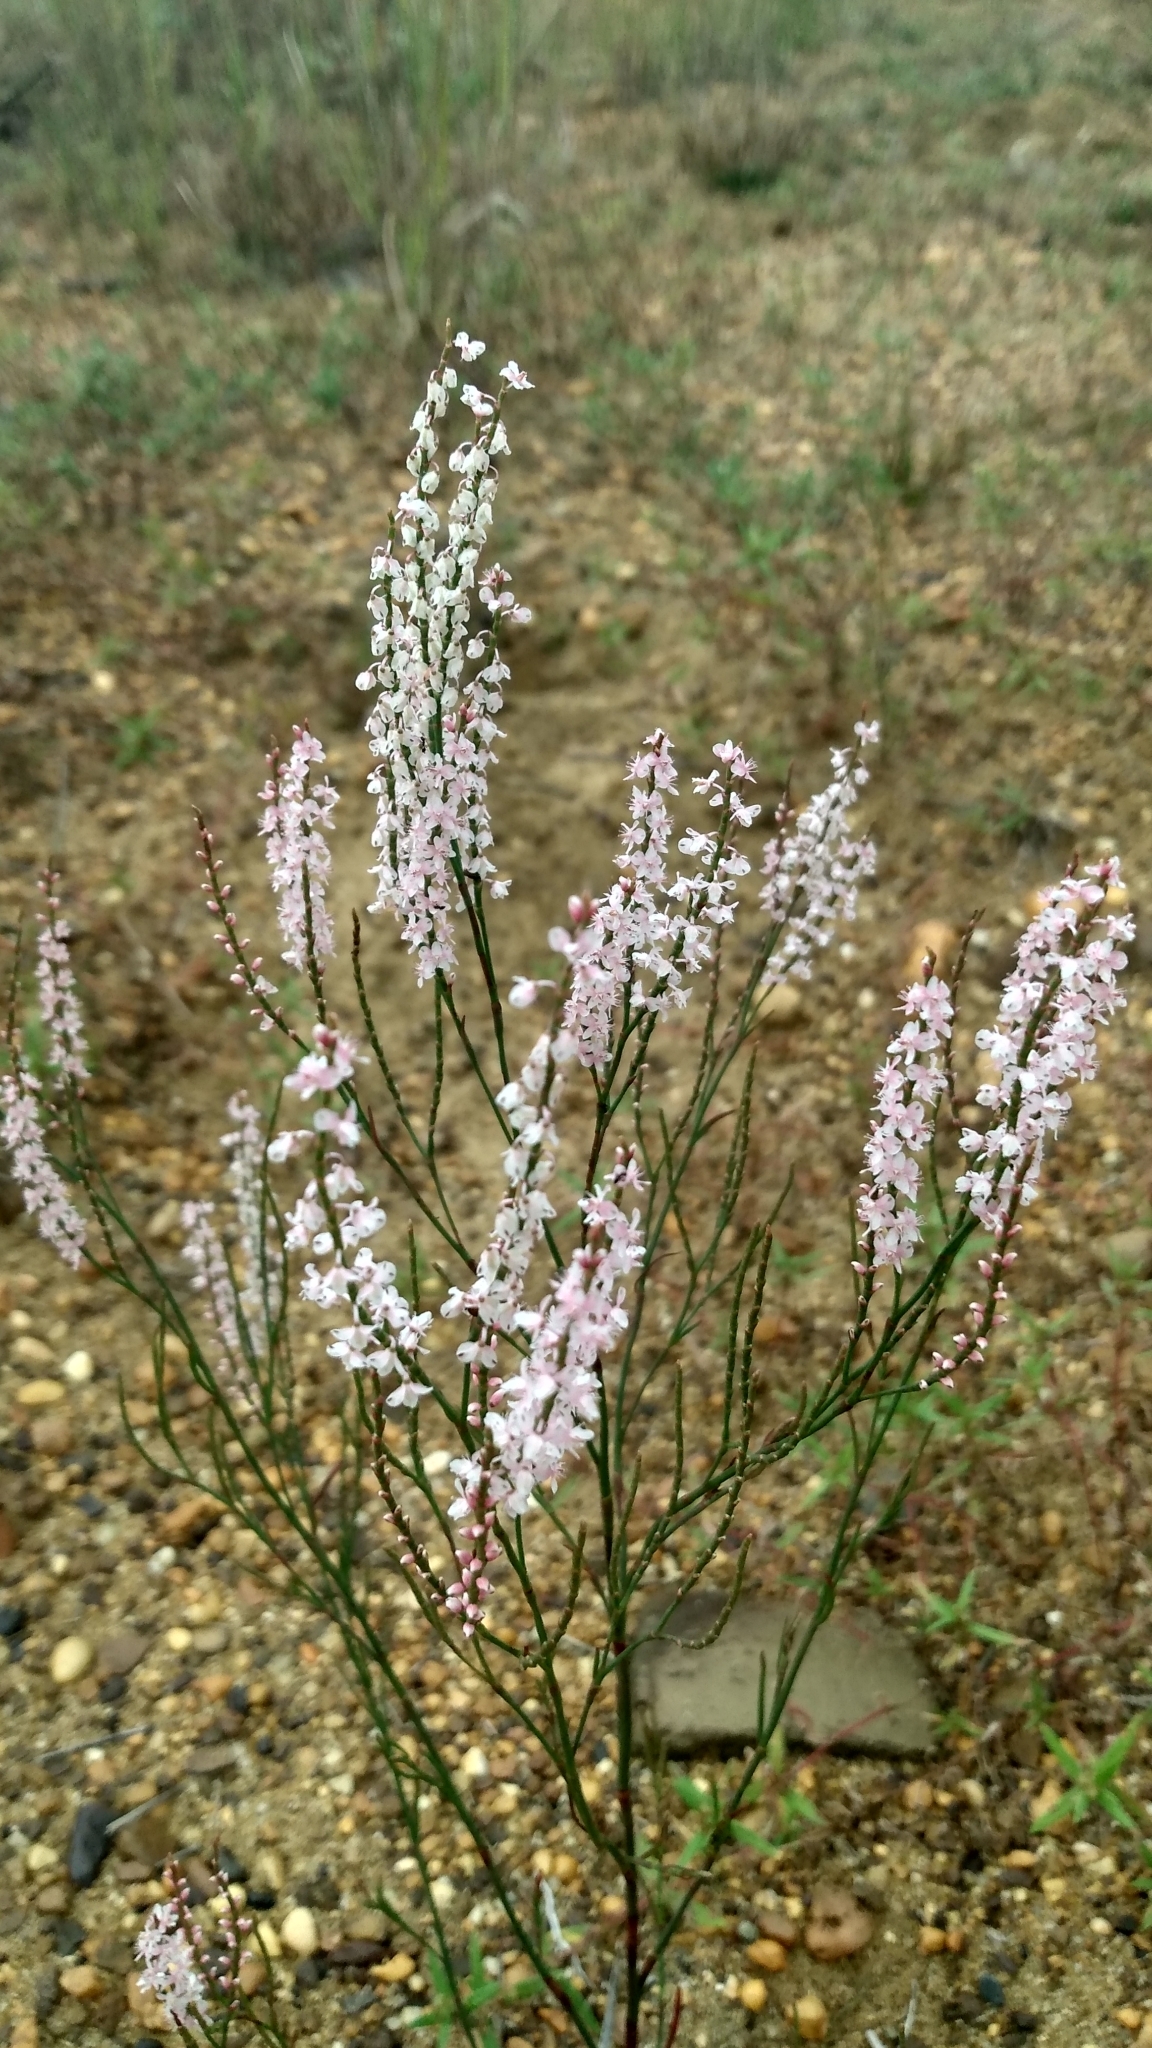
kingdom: Plantae
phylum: Tracheophyta
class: Magnoliopsida
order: Caryophyllales
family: Polygonaceae
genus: Polygonella
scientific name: Polygonella articulata
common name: Coastal jointweed
